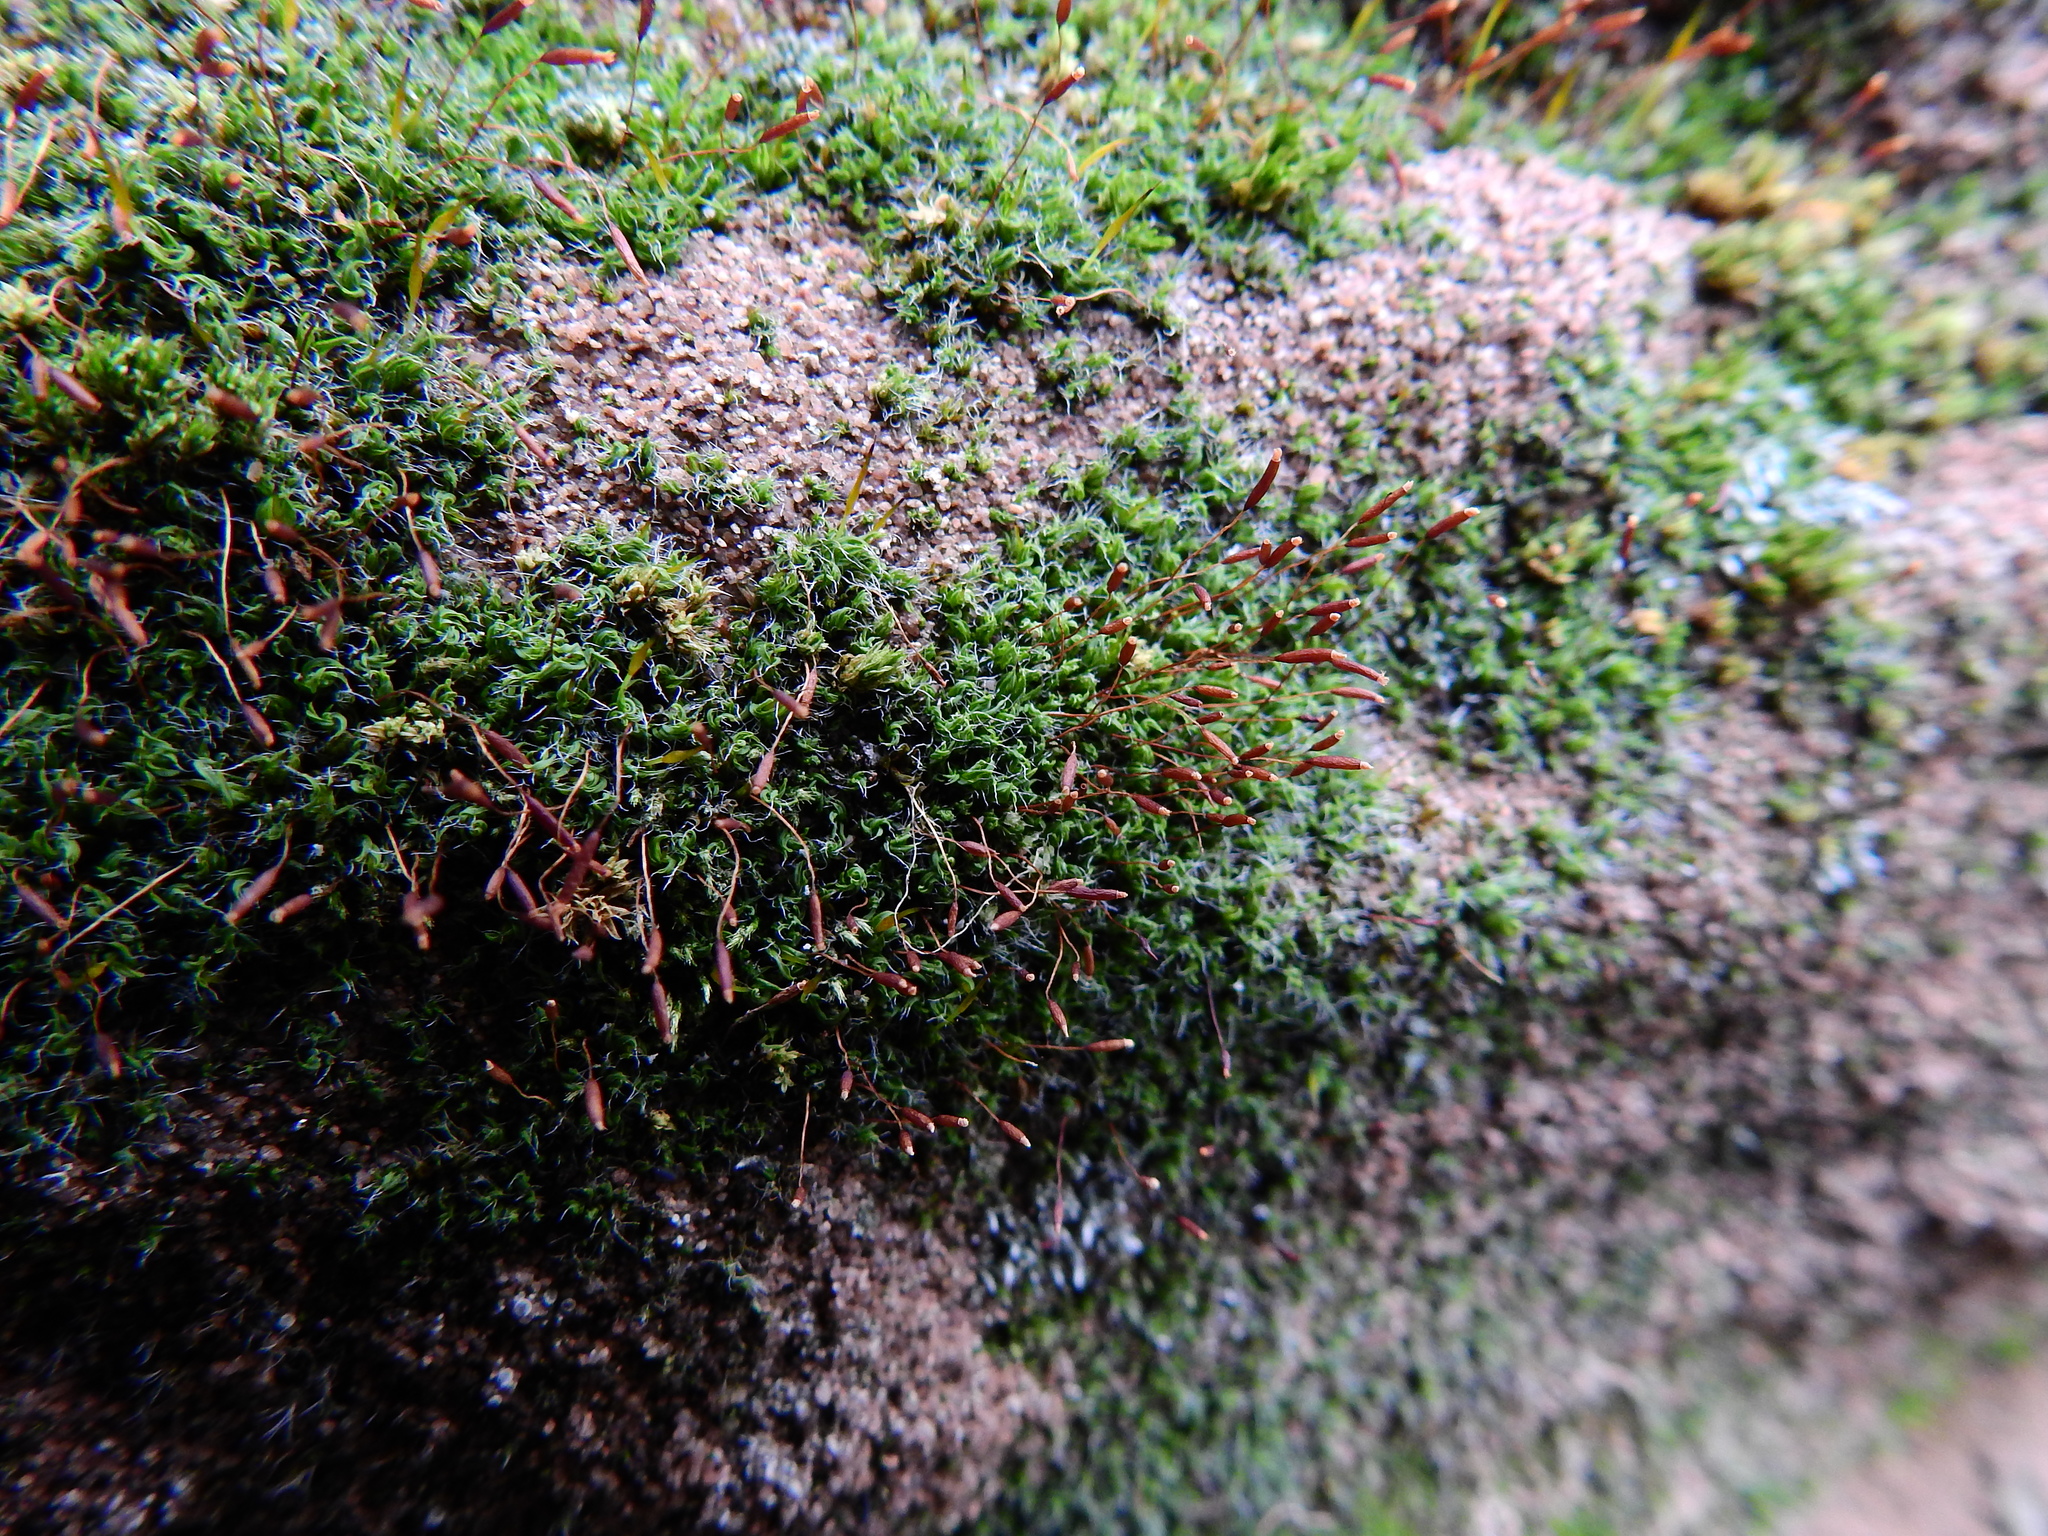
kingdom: Plantae
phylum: Bryophyta
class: Bryopsida
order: Pottiales
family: Pottiaceae
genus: Tortula
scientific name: Tortula muralis
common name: Wall screw-moss
